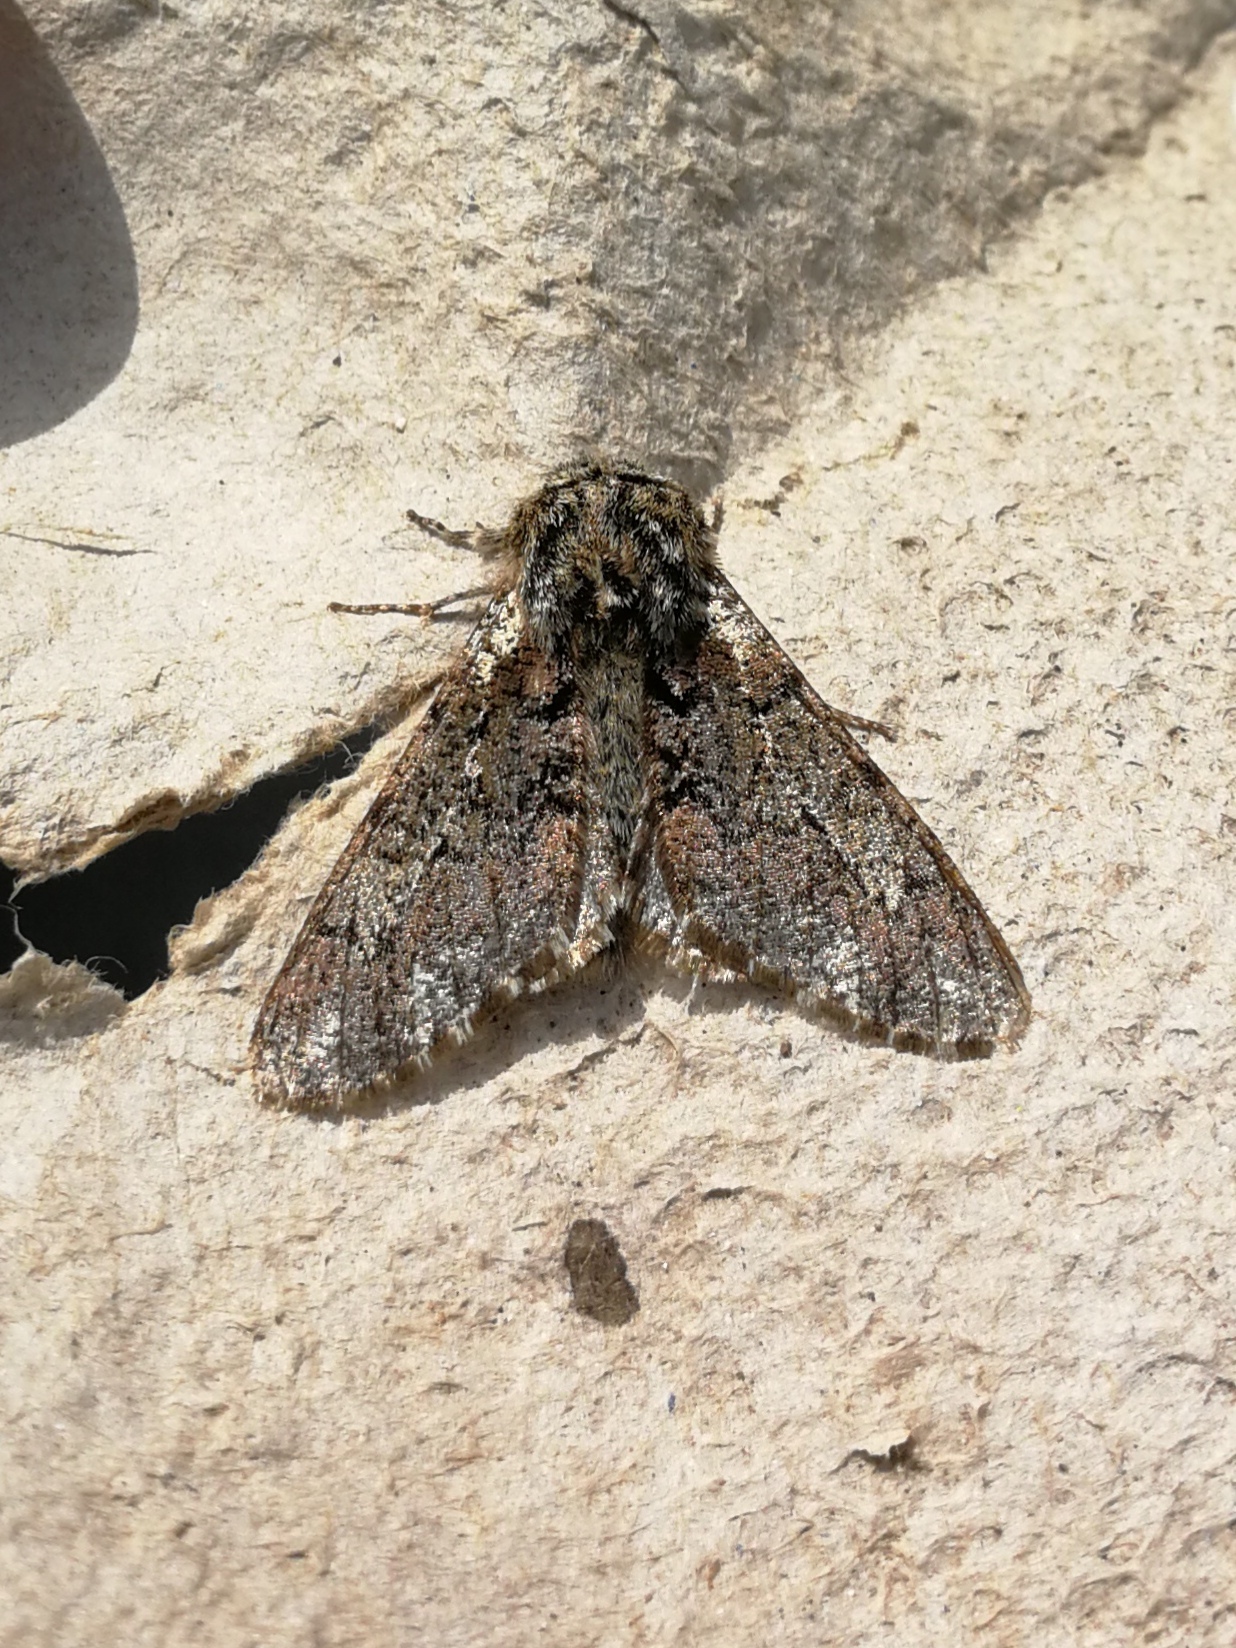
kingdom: Animalia
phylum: Arthropoda
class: Insecta
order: Lepidoptera
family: Geometridae
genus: Biston
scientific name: Biston strataria
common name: Oak beauty
